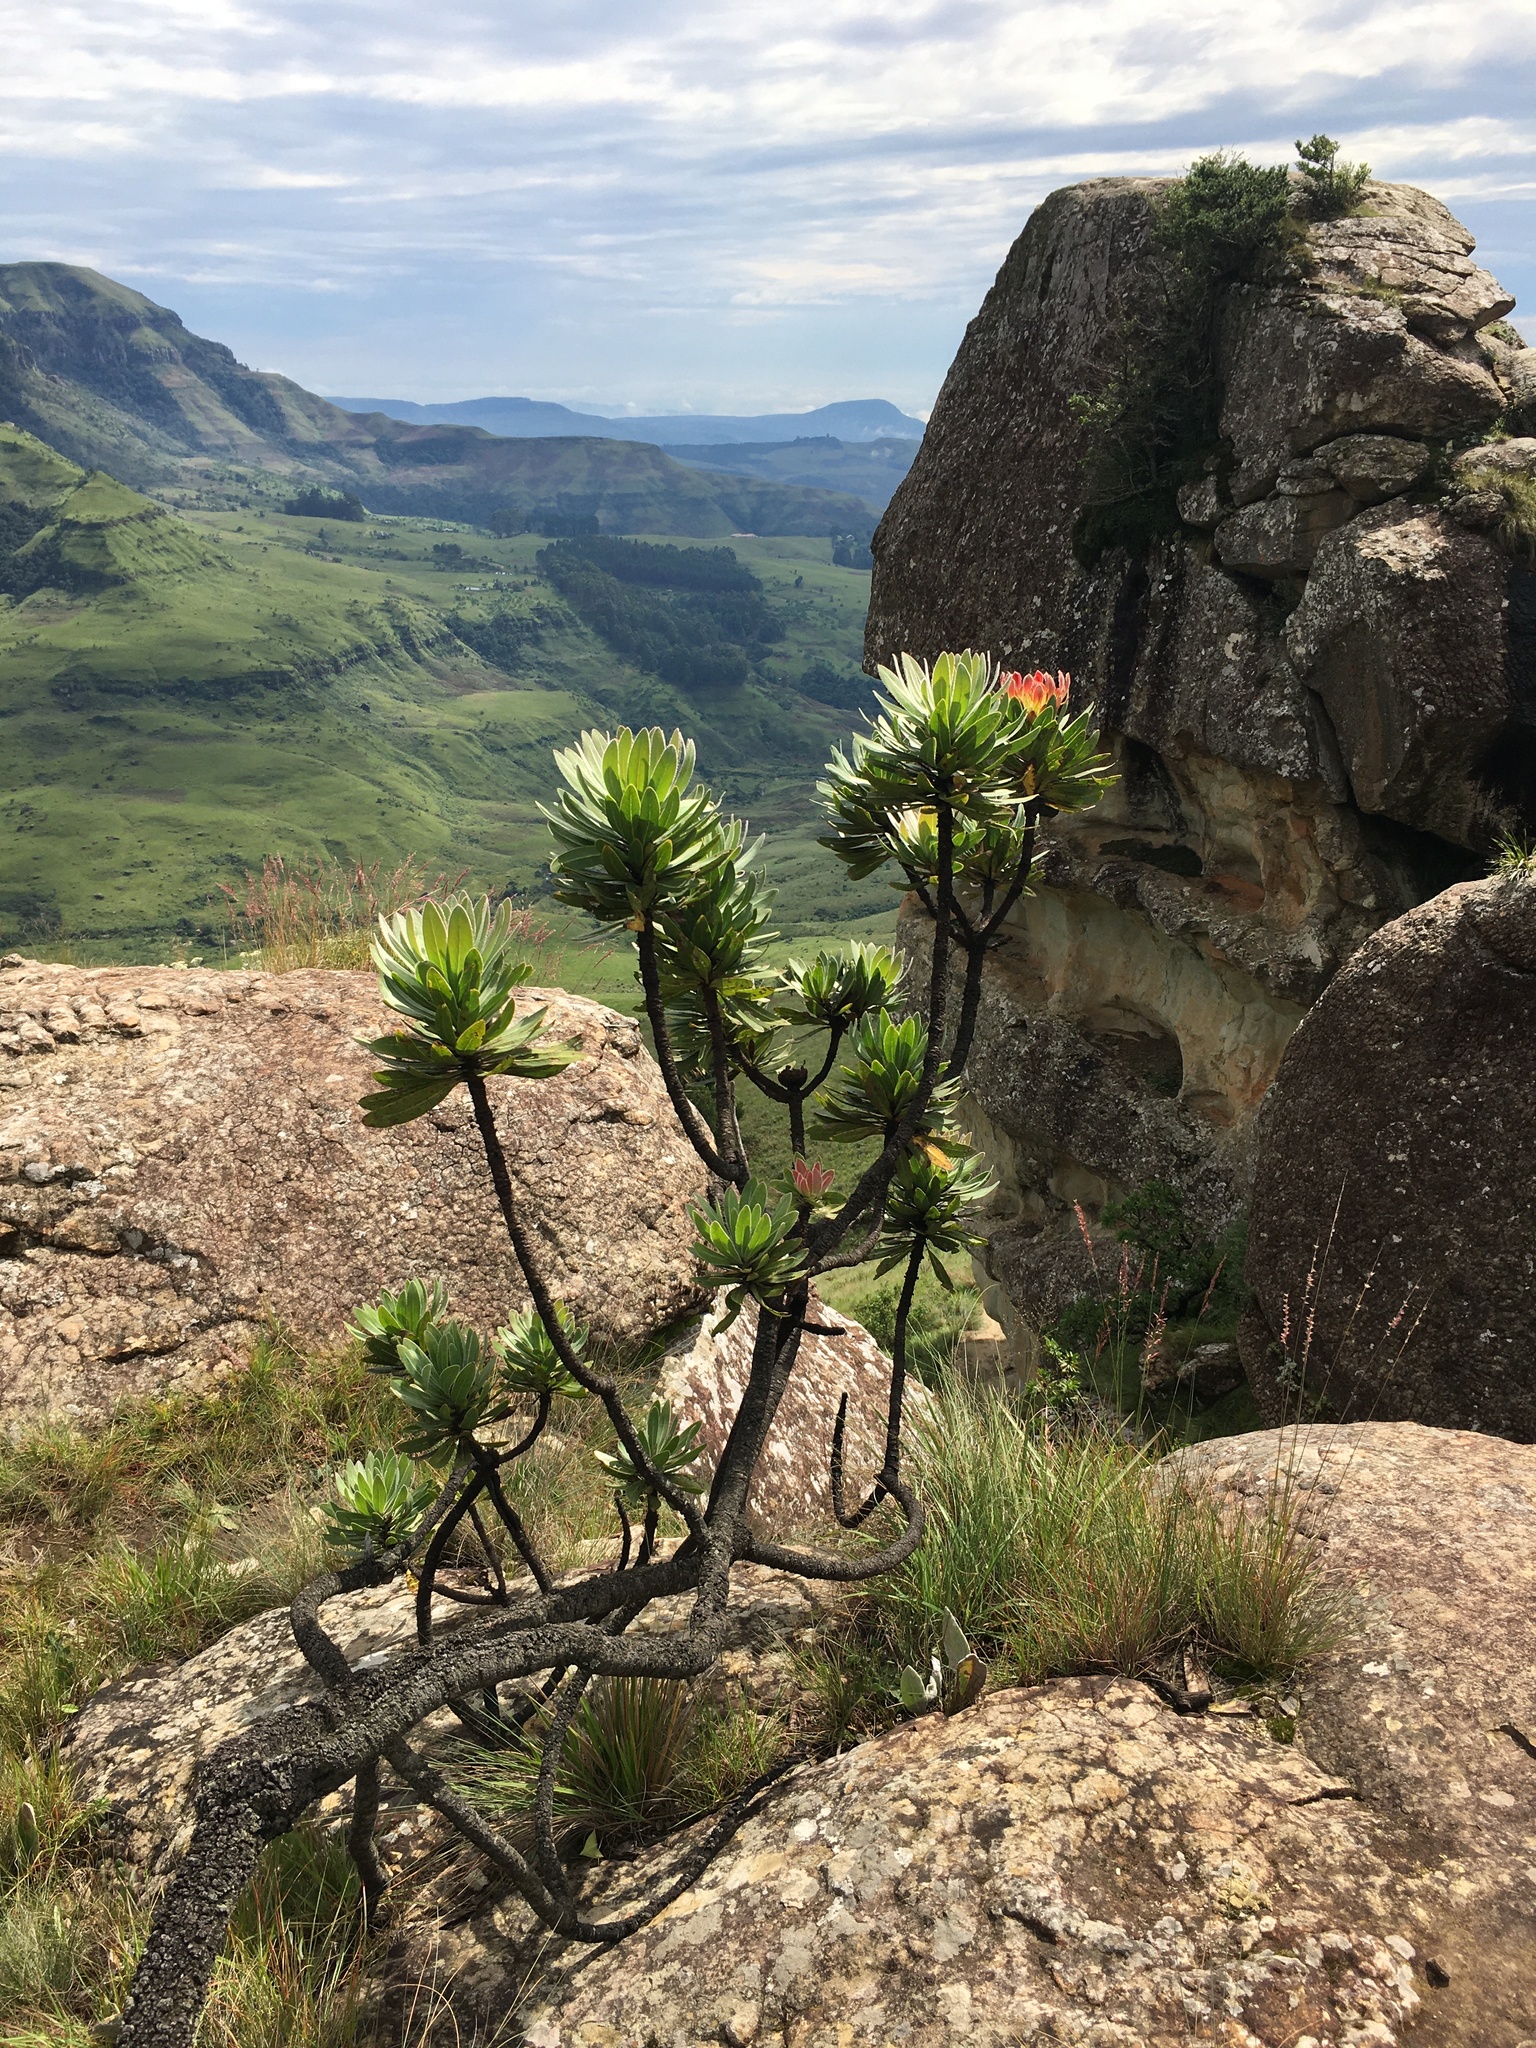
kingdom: Plantae
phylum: Tracheophyta
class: Magnoliopsida
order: Proteales
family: Proteaceae
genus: Protea
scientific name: Protea roupelliae
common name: Silver sugarbush
